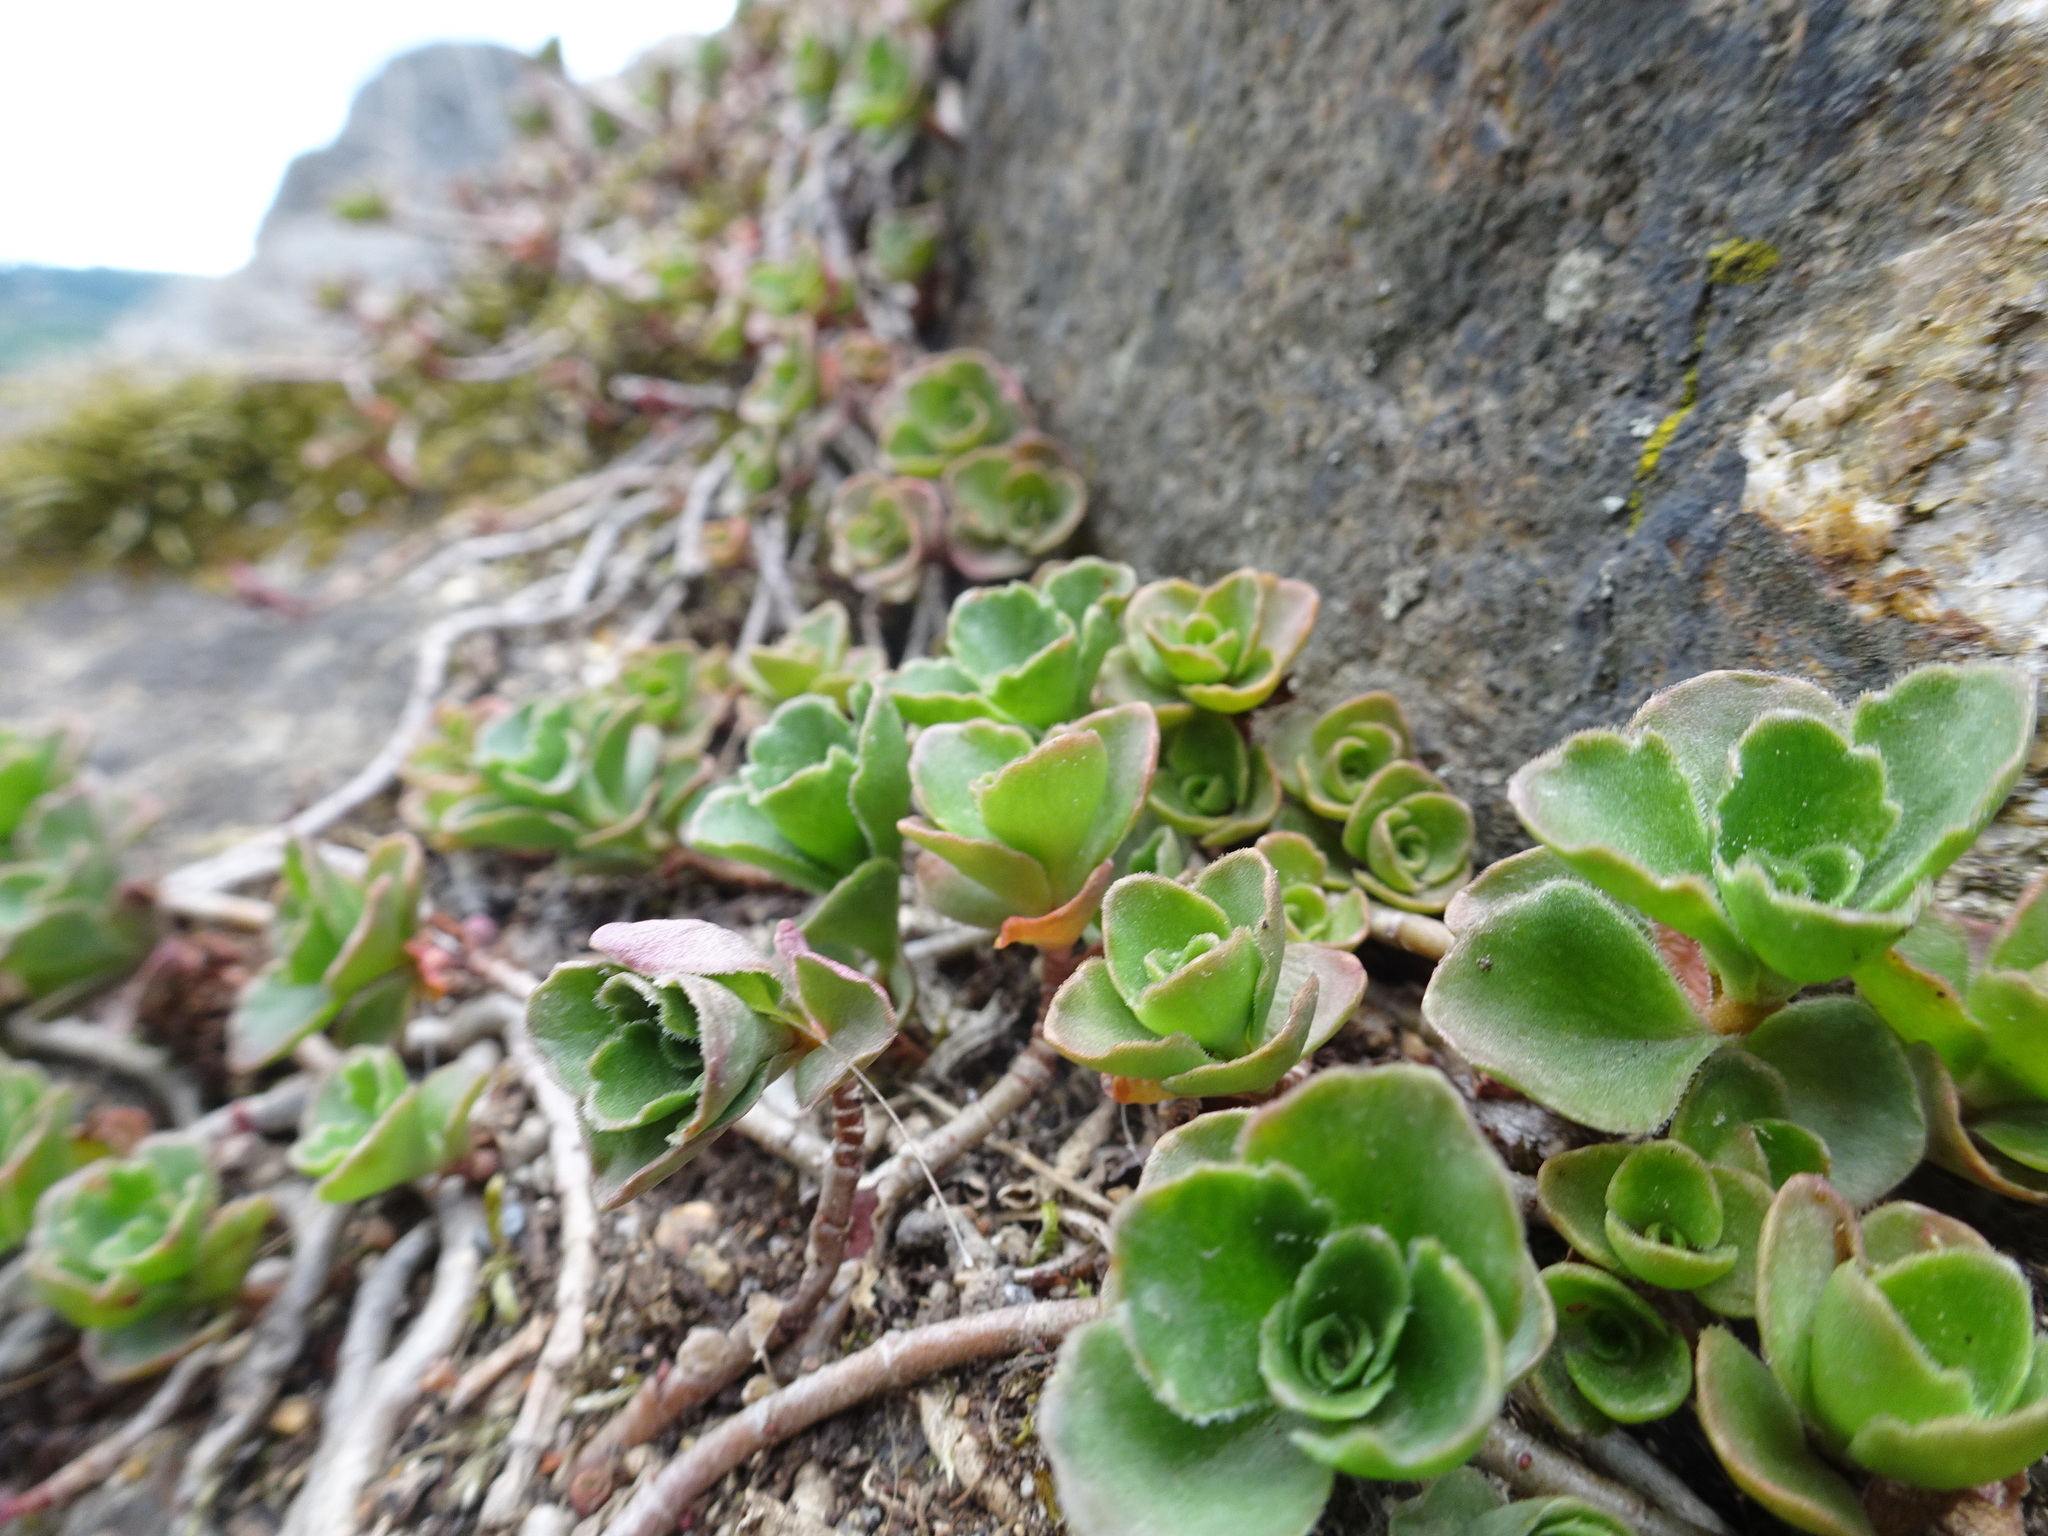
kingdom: Plantae
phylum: Tracheophyta
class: Magnoliopsida
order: Saxifragales
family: Crassulaceae
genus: Phedimus
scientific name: Phedimus spurius
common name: Caucasian stonecrop
